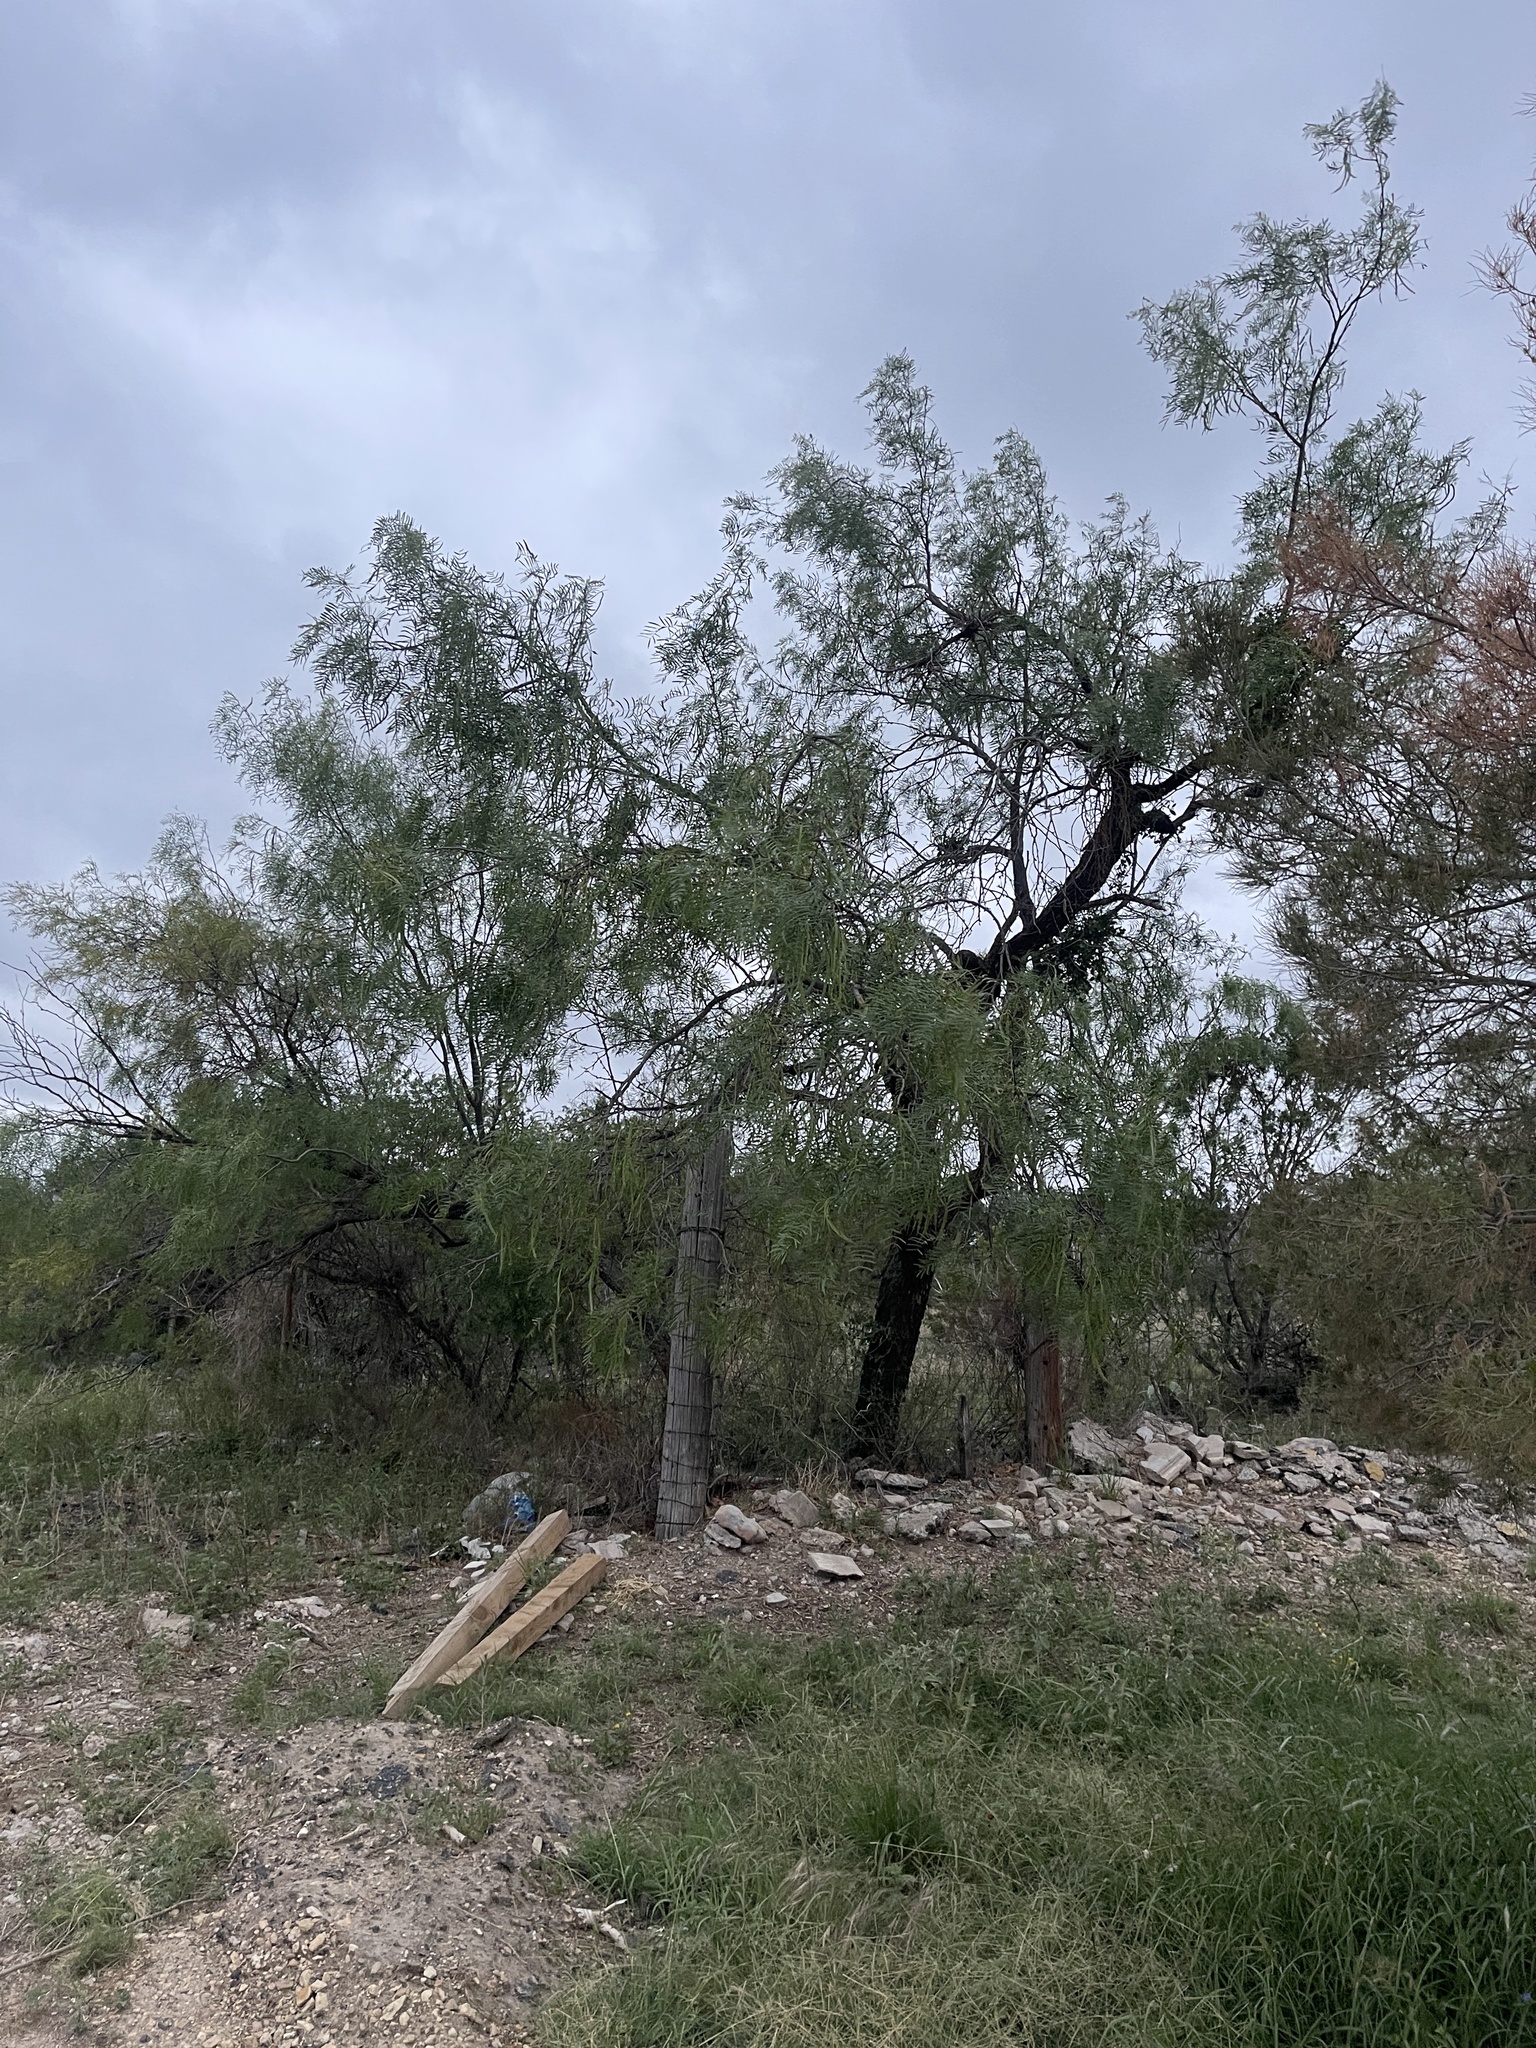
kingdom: Plantae
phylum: Tracheophyta
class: Magnoliopsida
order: Fabales
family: Fabaceae
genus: Prosopis
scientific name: Prosopis glandulosa
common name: Honey mesquite
